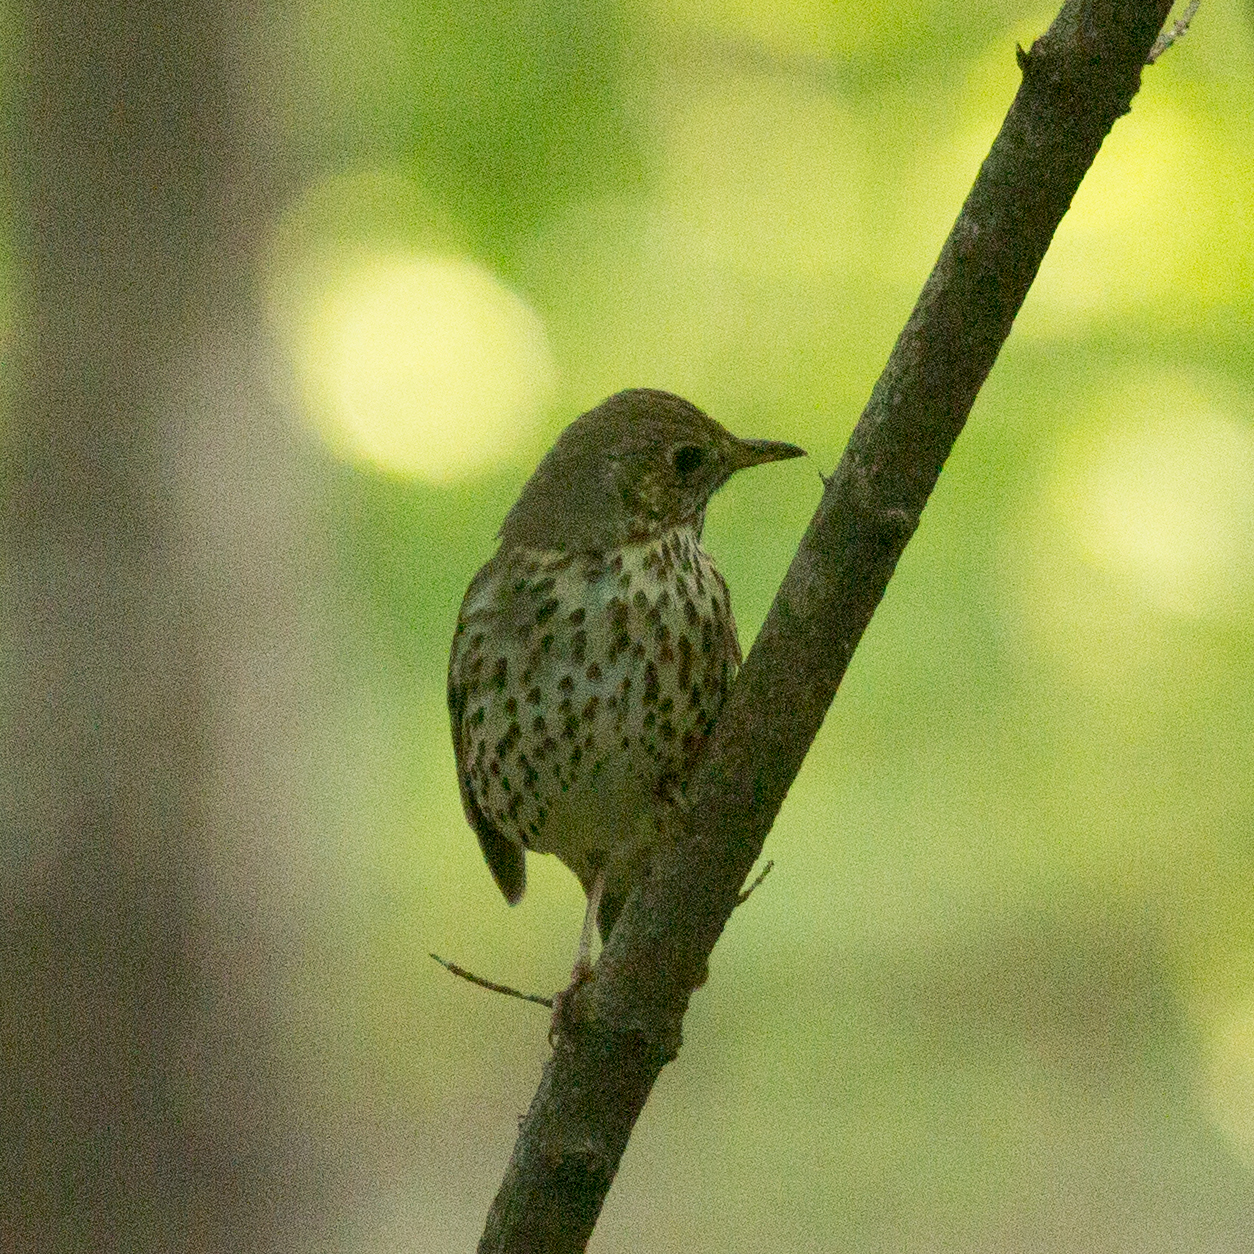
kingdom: Animalia
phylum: Chordata
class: Aves
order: Passeriformes
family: Turdidae
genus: Turdus
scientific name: Turdus philomelos
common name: Song thrush
